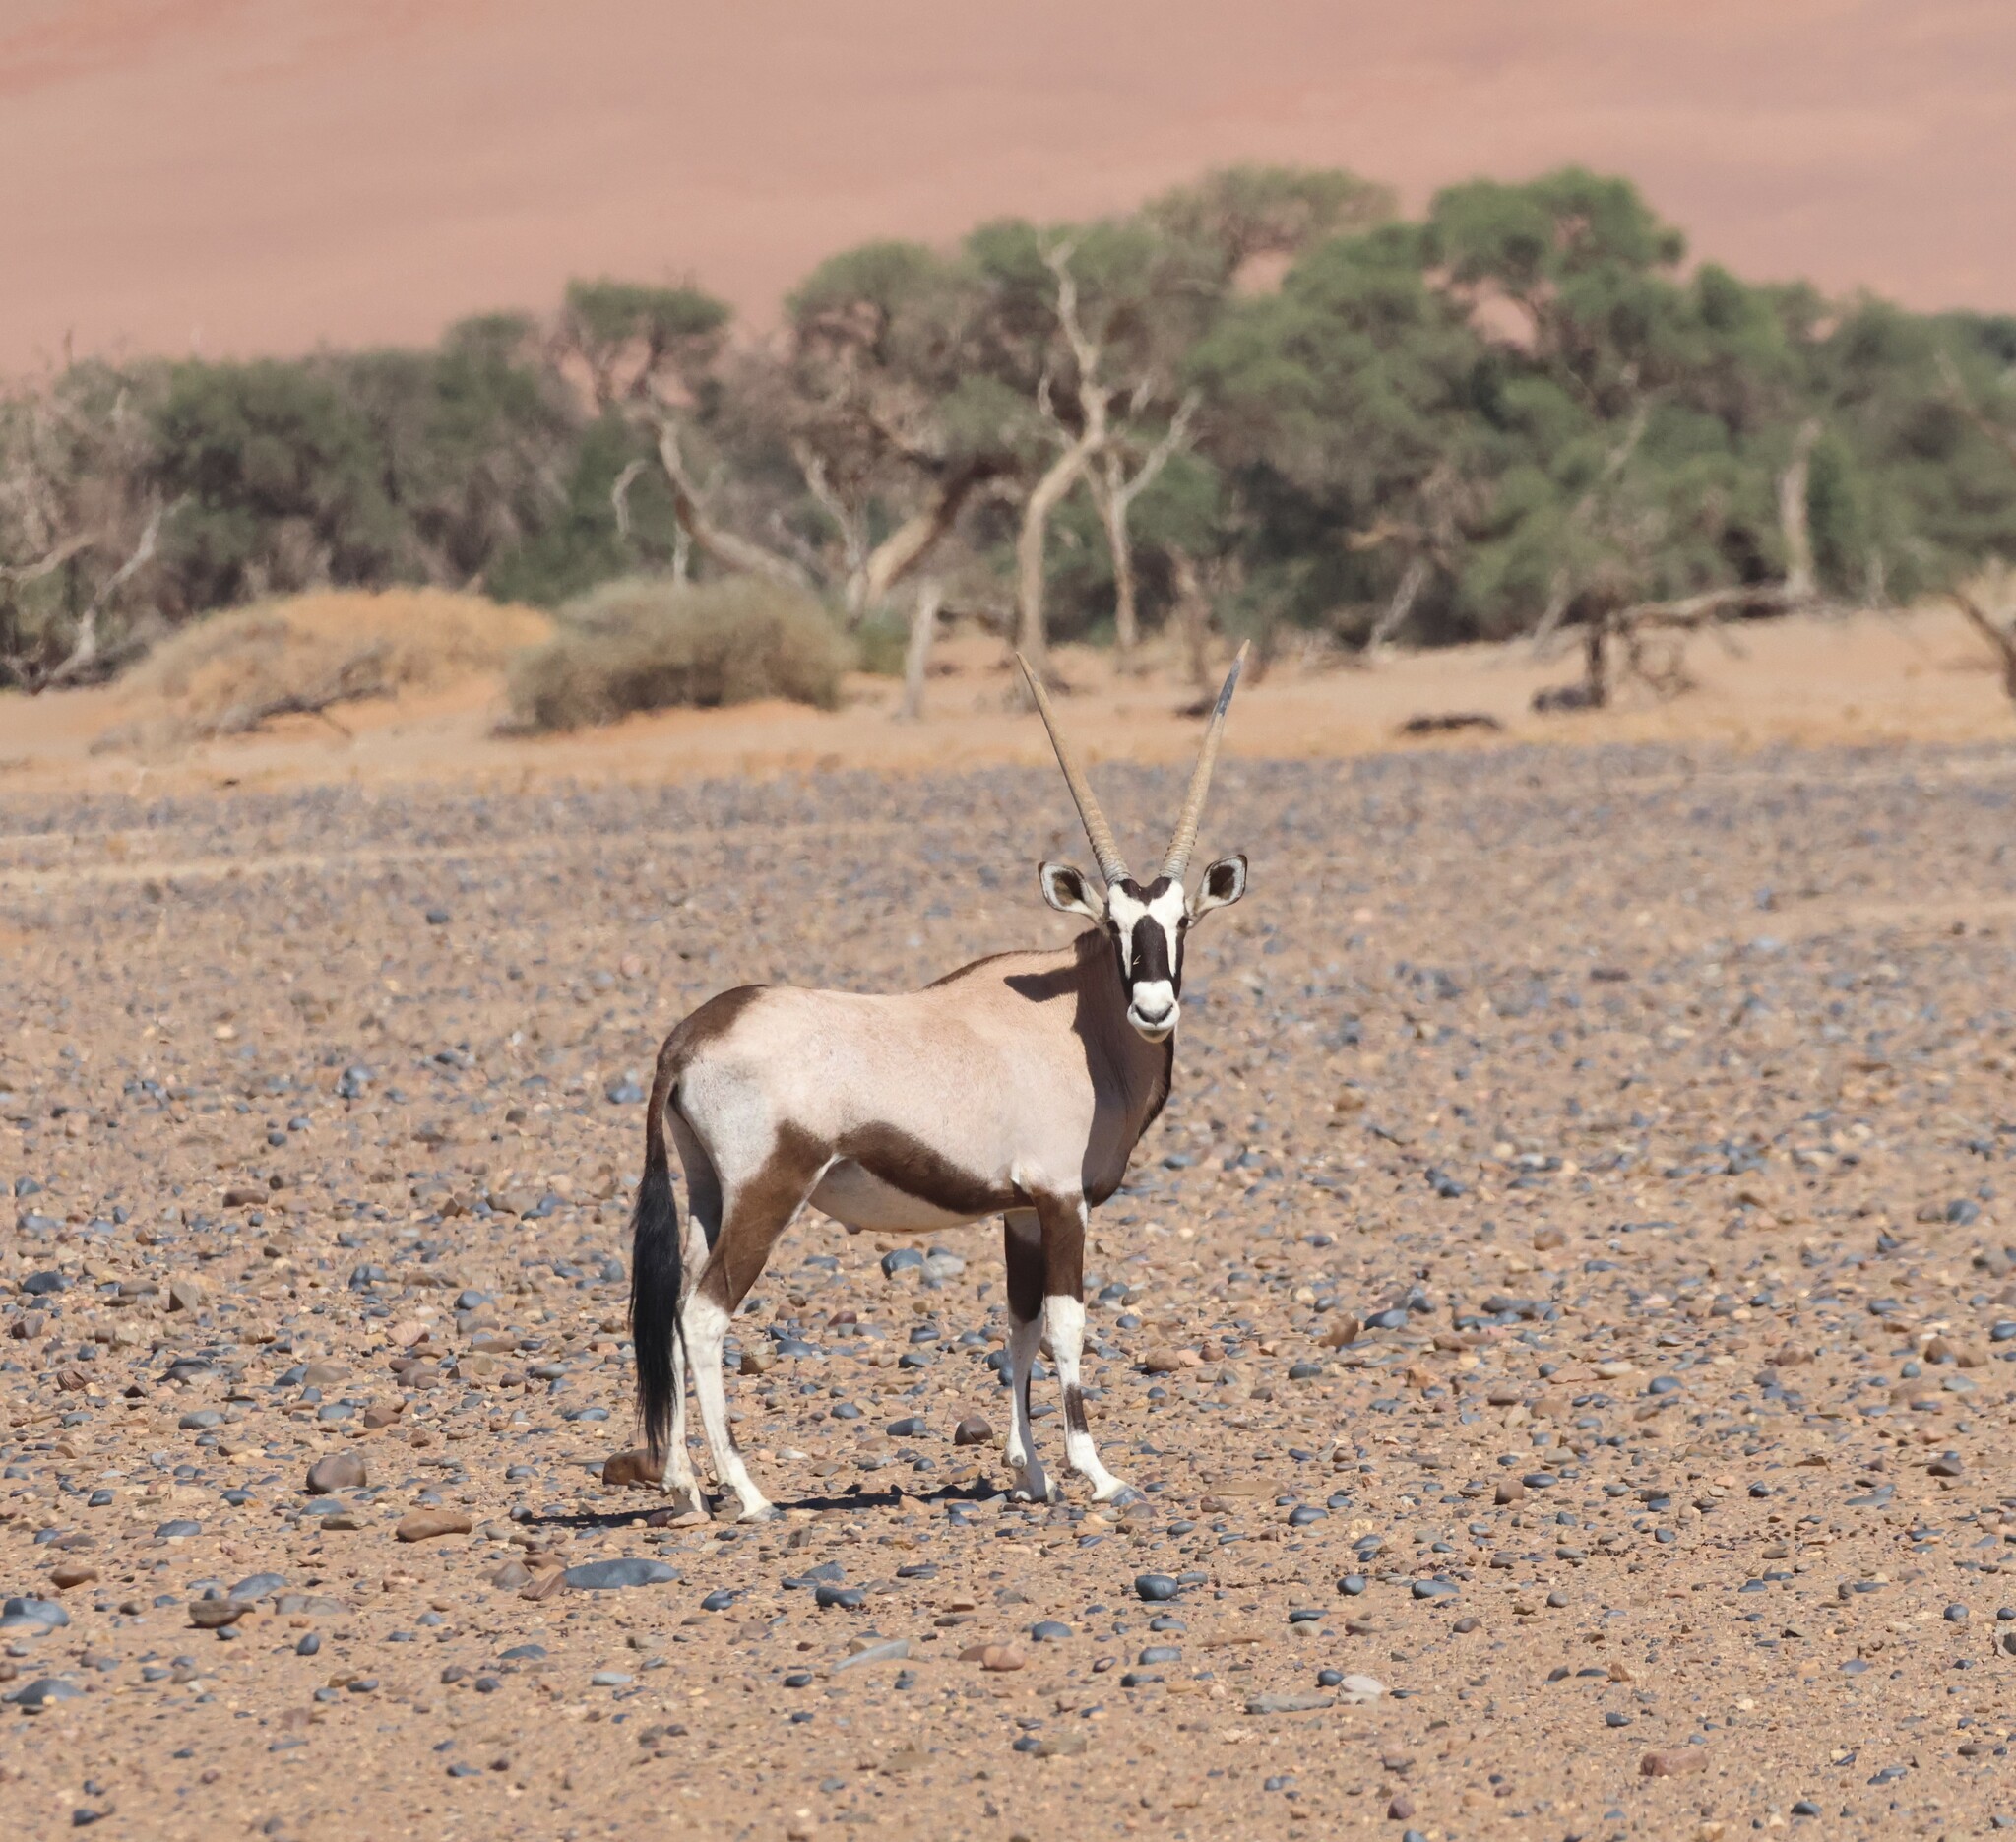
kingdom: Animalia
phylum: Chordata
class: Mammalia
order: Artiodactyla
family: Bovidae
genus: Oryx
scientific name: Oryx gazella
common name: Gemsbok
